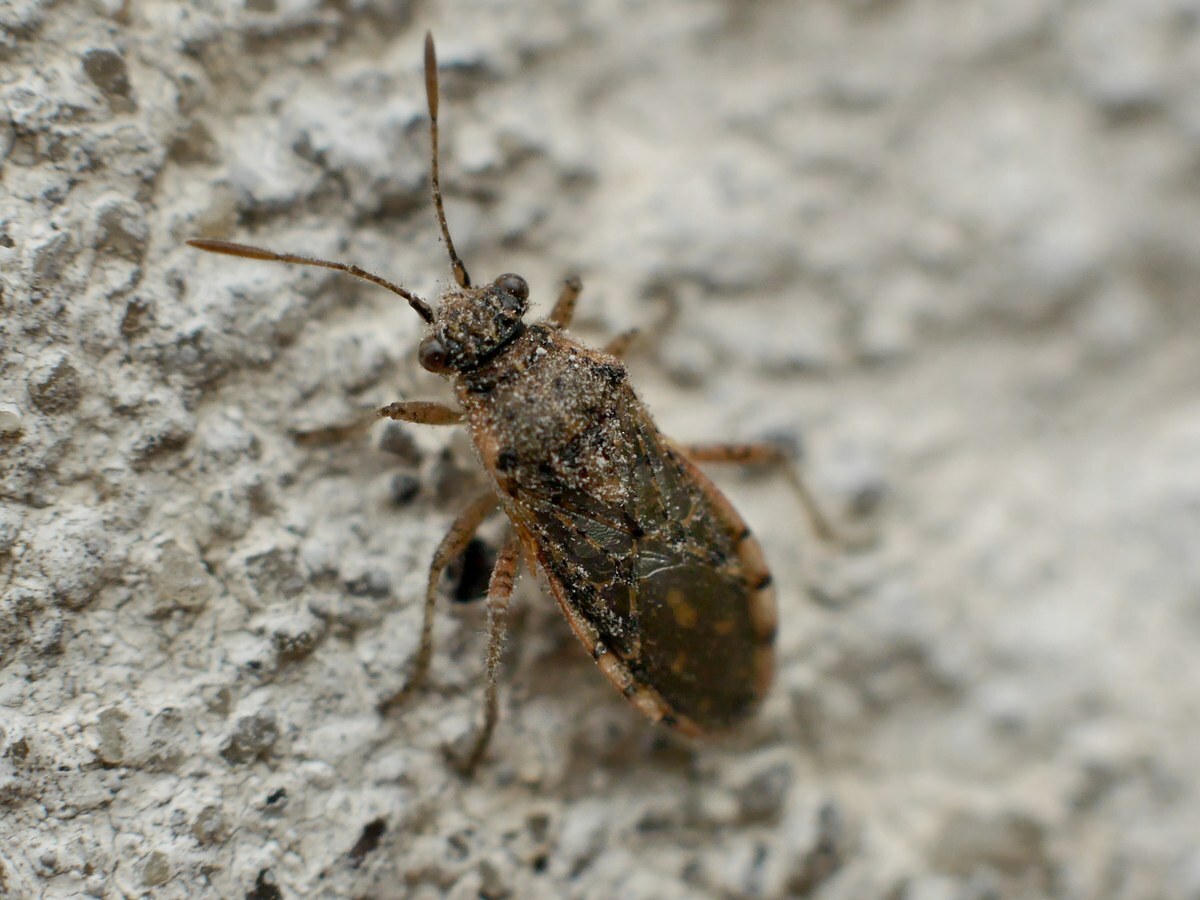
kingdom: Animalia
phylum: Arthropoda
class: Insecta
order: Hemiptera
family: Rhopalidae
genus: Brachycarenus
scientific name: Brachycarenus tigrinus
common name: Scentless plant bug
